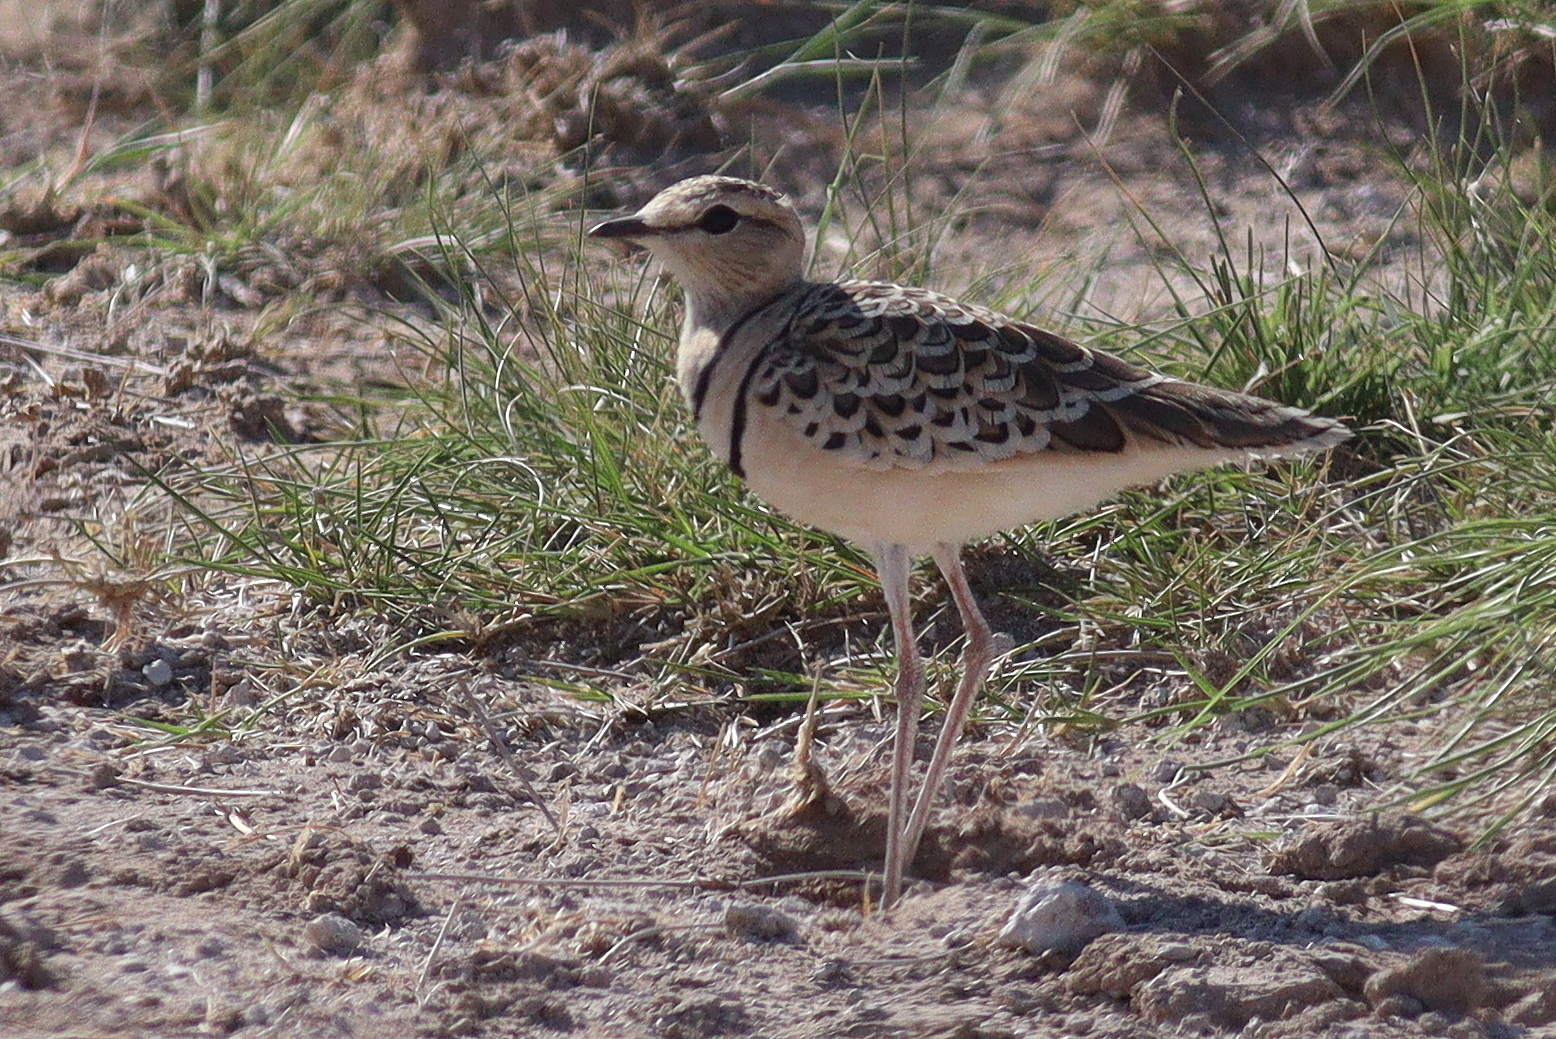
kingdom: Animalia
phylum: Chordata
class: Aves
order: Charadriiformes
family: Glareolidae
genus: Rhinoptilus
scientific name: Rhinoptilus africanus
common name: Double-banded courser
